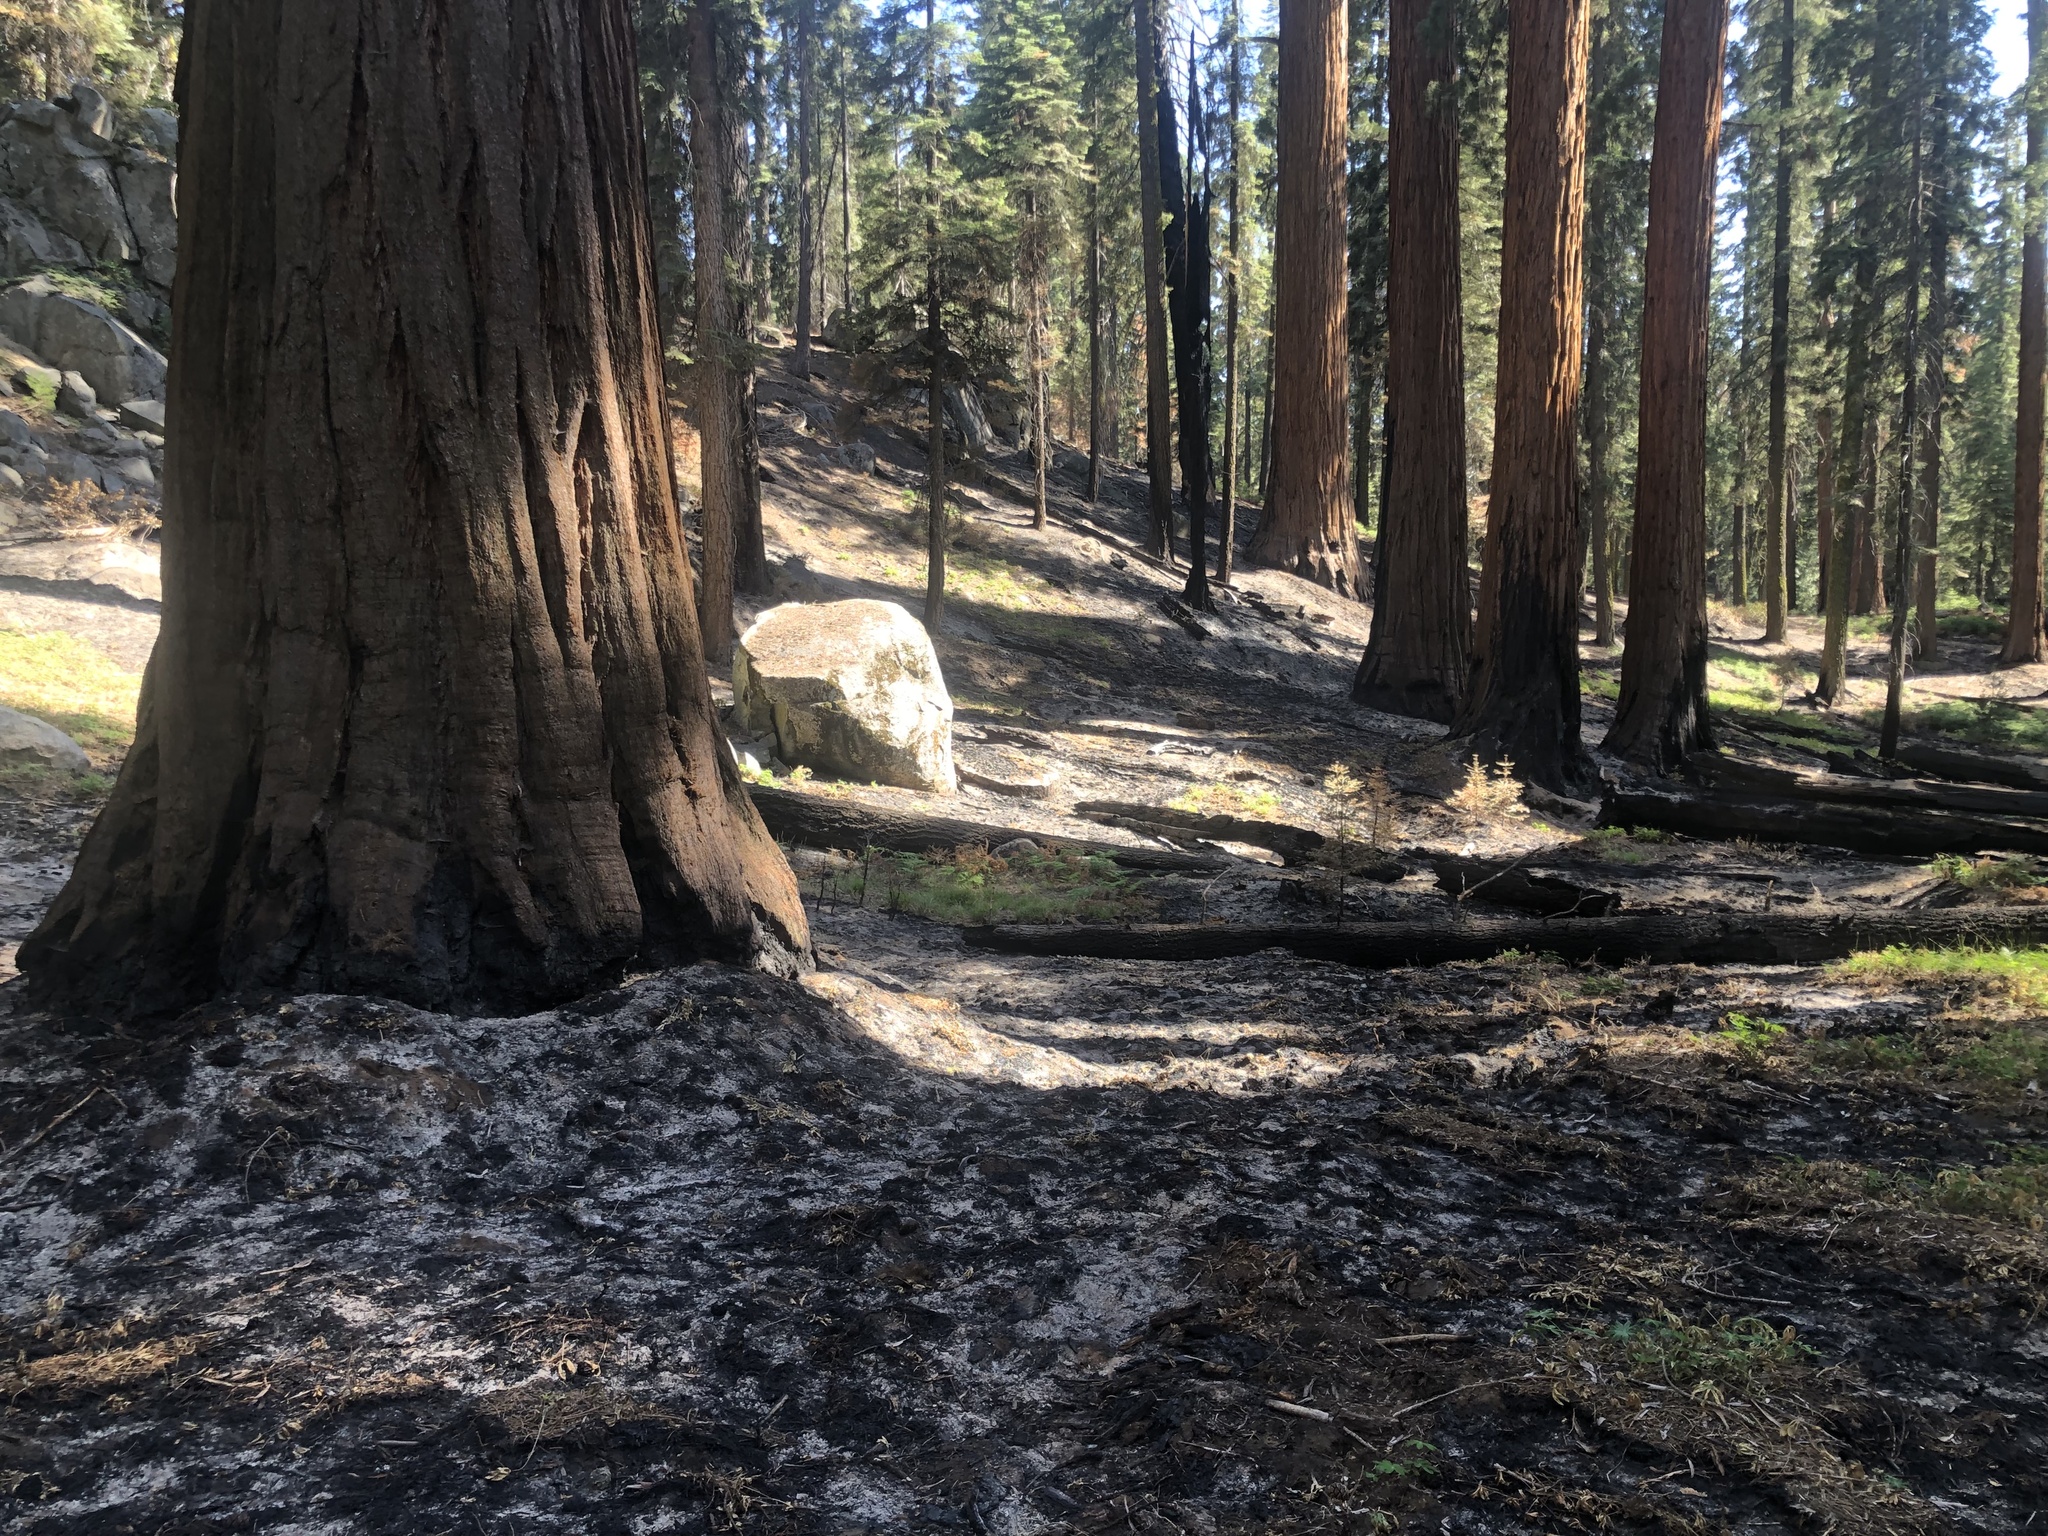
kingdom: Plantae
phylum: Tracheophyta
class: Pinopsida
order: Pinales
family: Cupressaceae
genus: Sequoiadendron
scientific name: Sequoiadendron giganteum
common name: Wellingtonia
